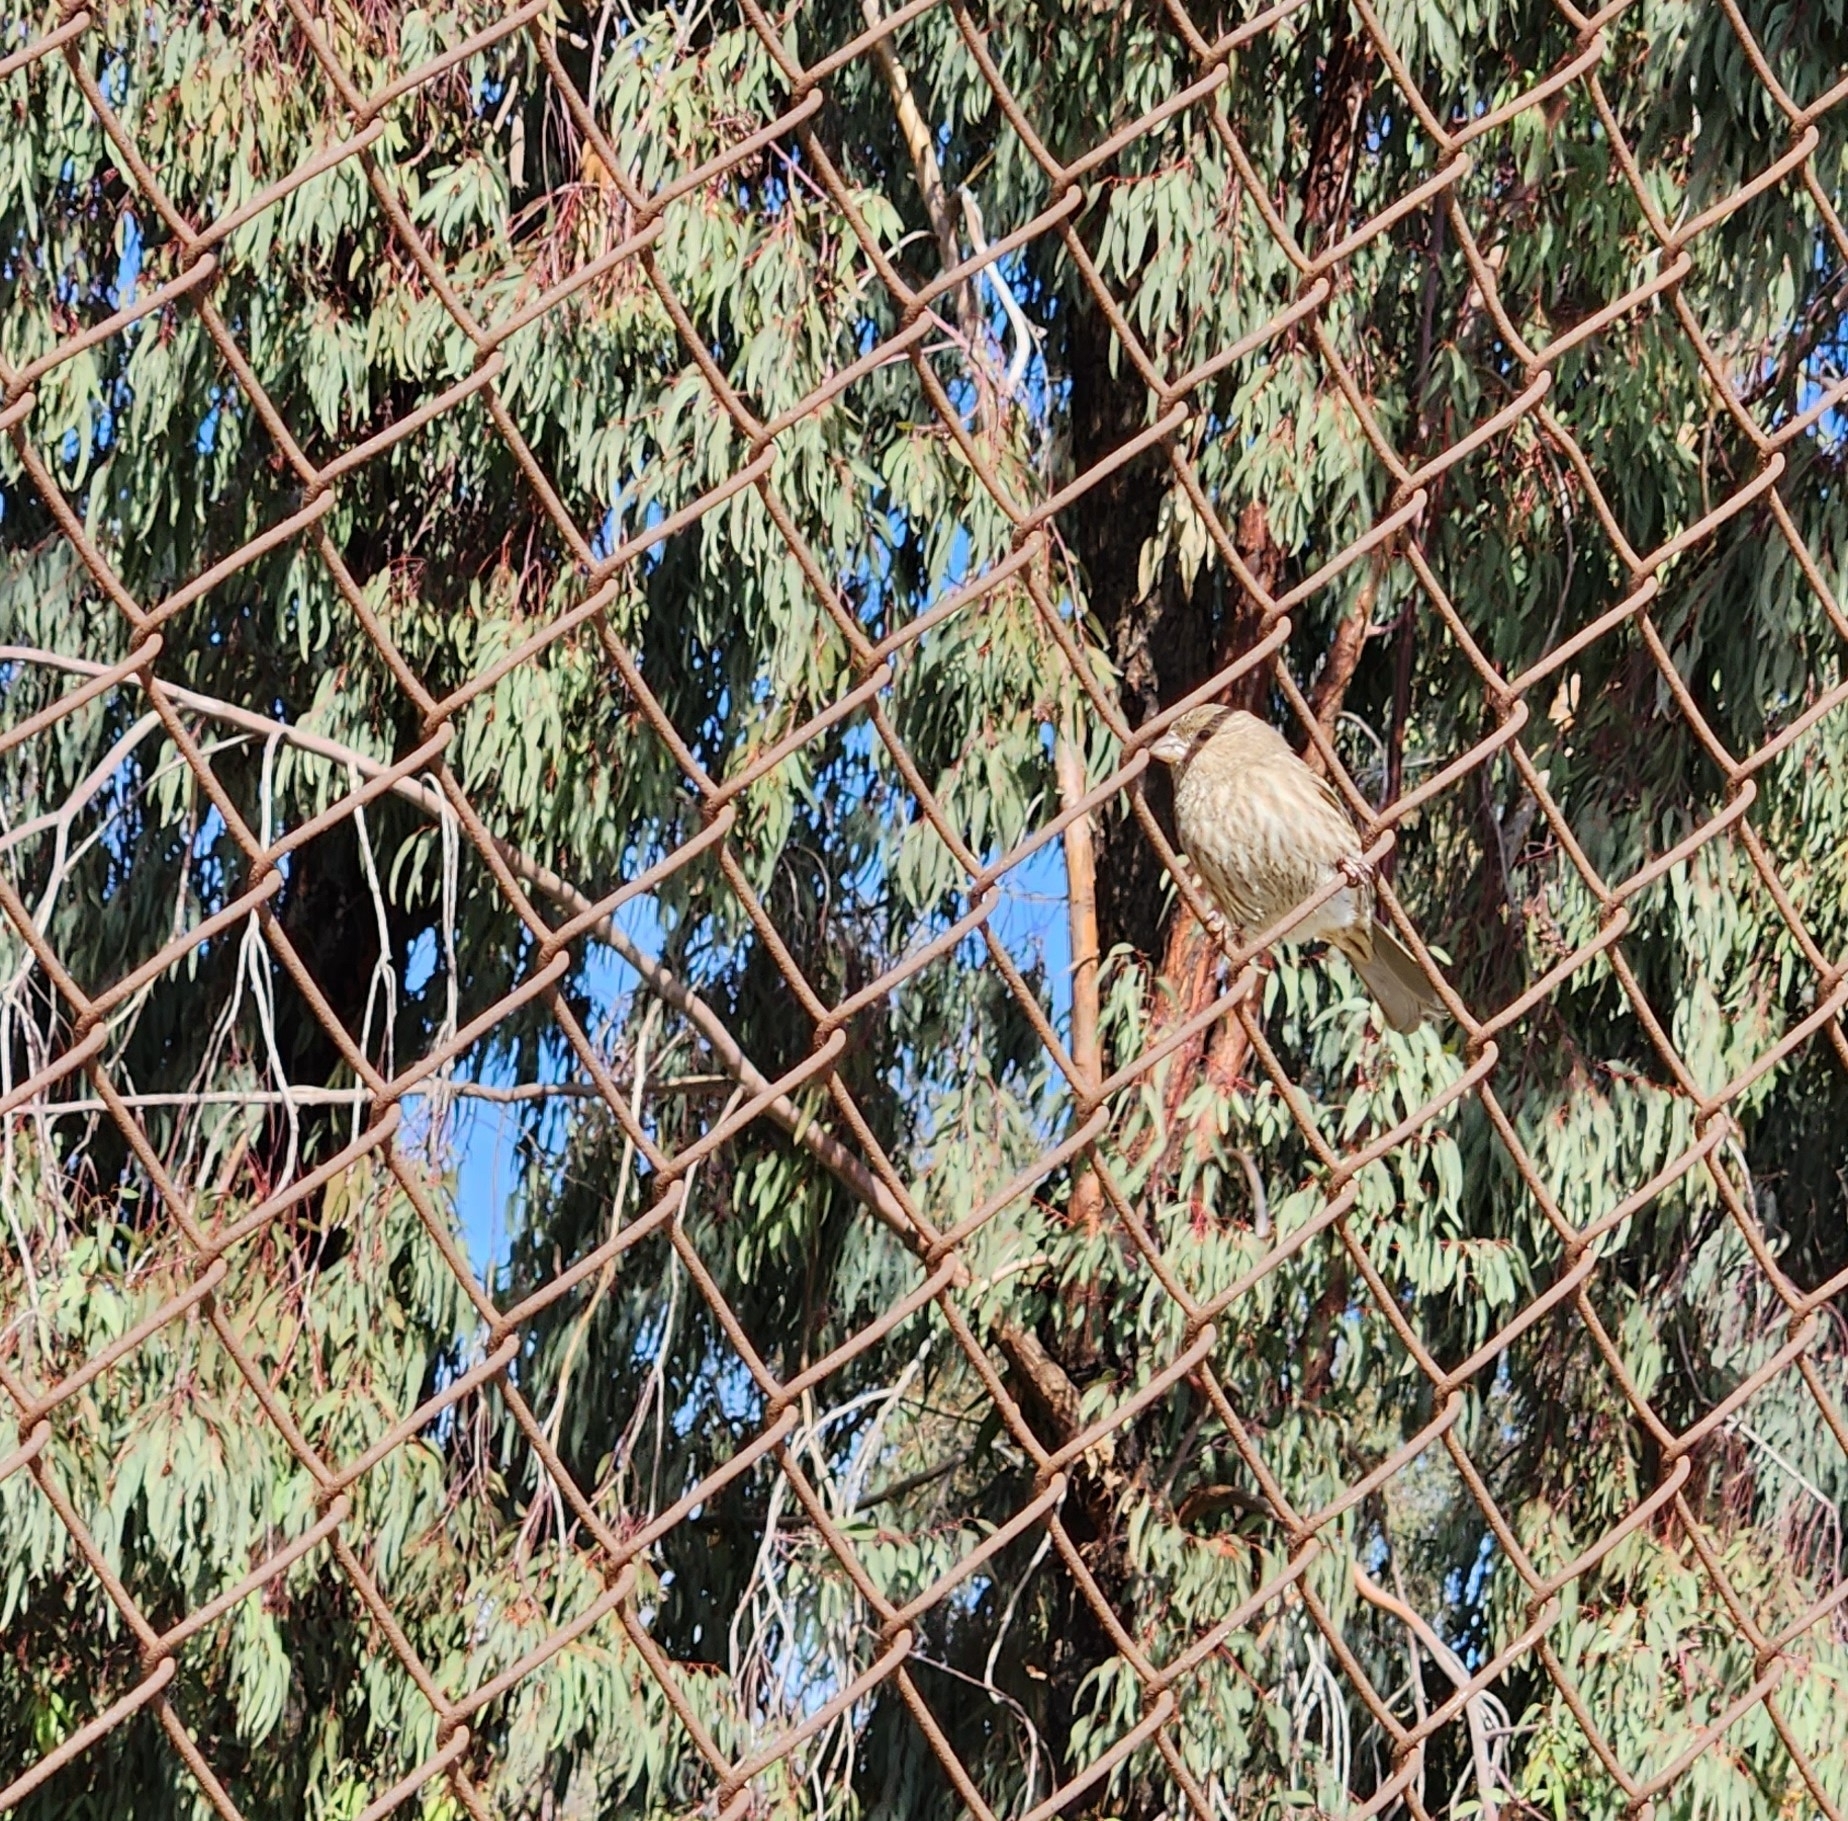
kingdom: Animalia
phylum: Chordata
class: Aves
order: Passeriformes
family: Fringillidae
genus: Haemorhous
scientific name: Haemorhous mexicanus
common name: House finch
